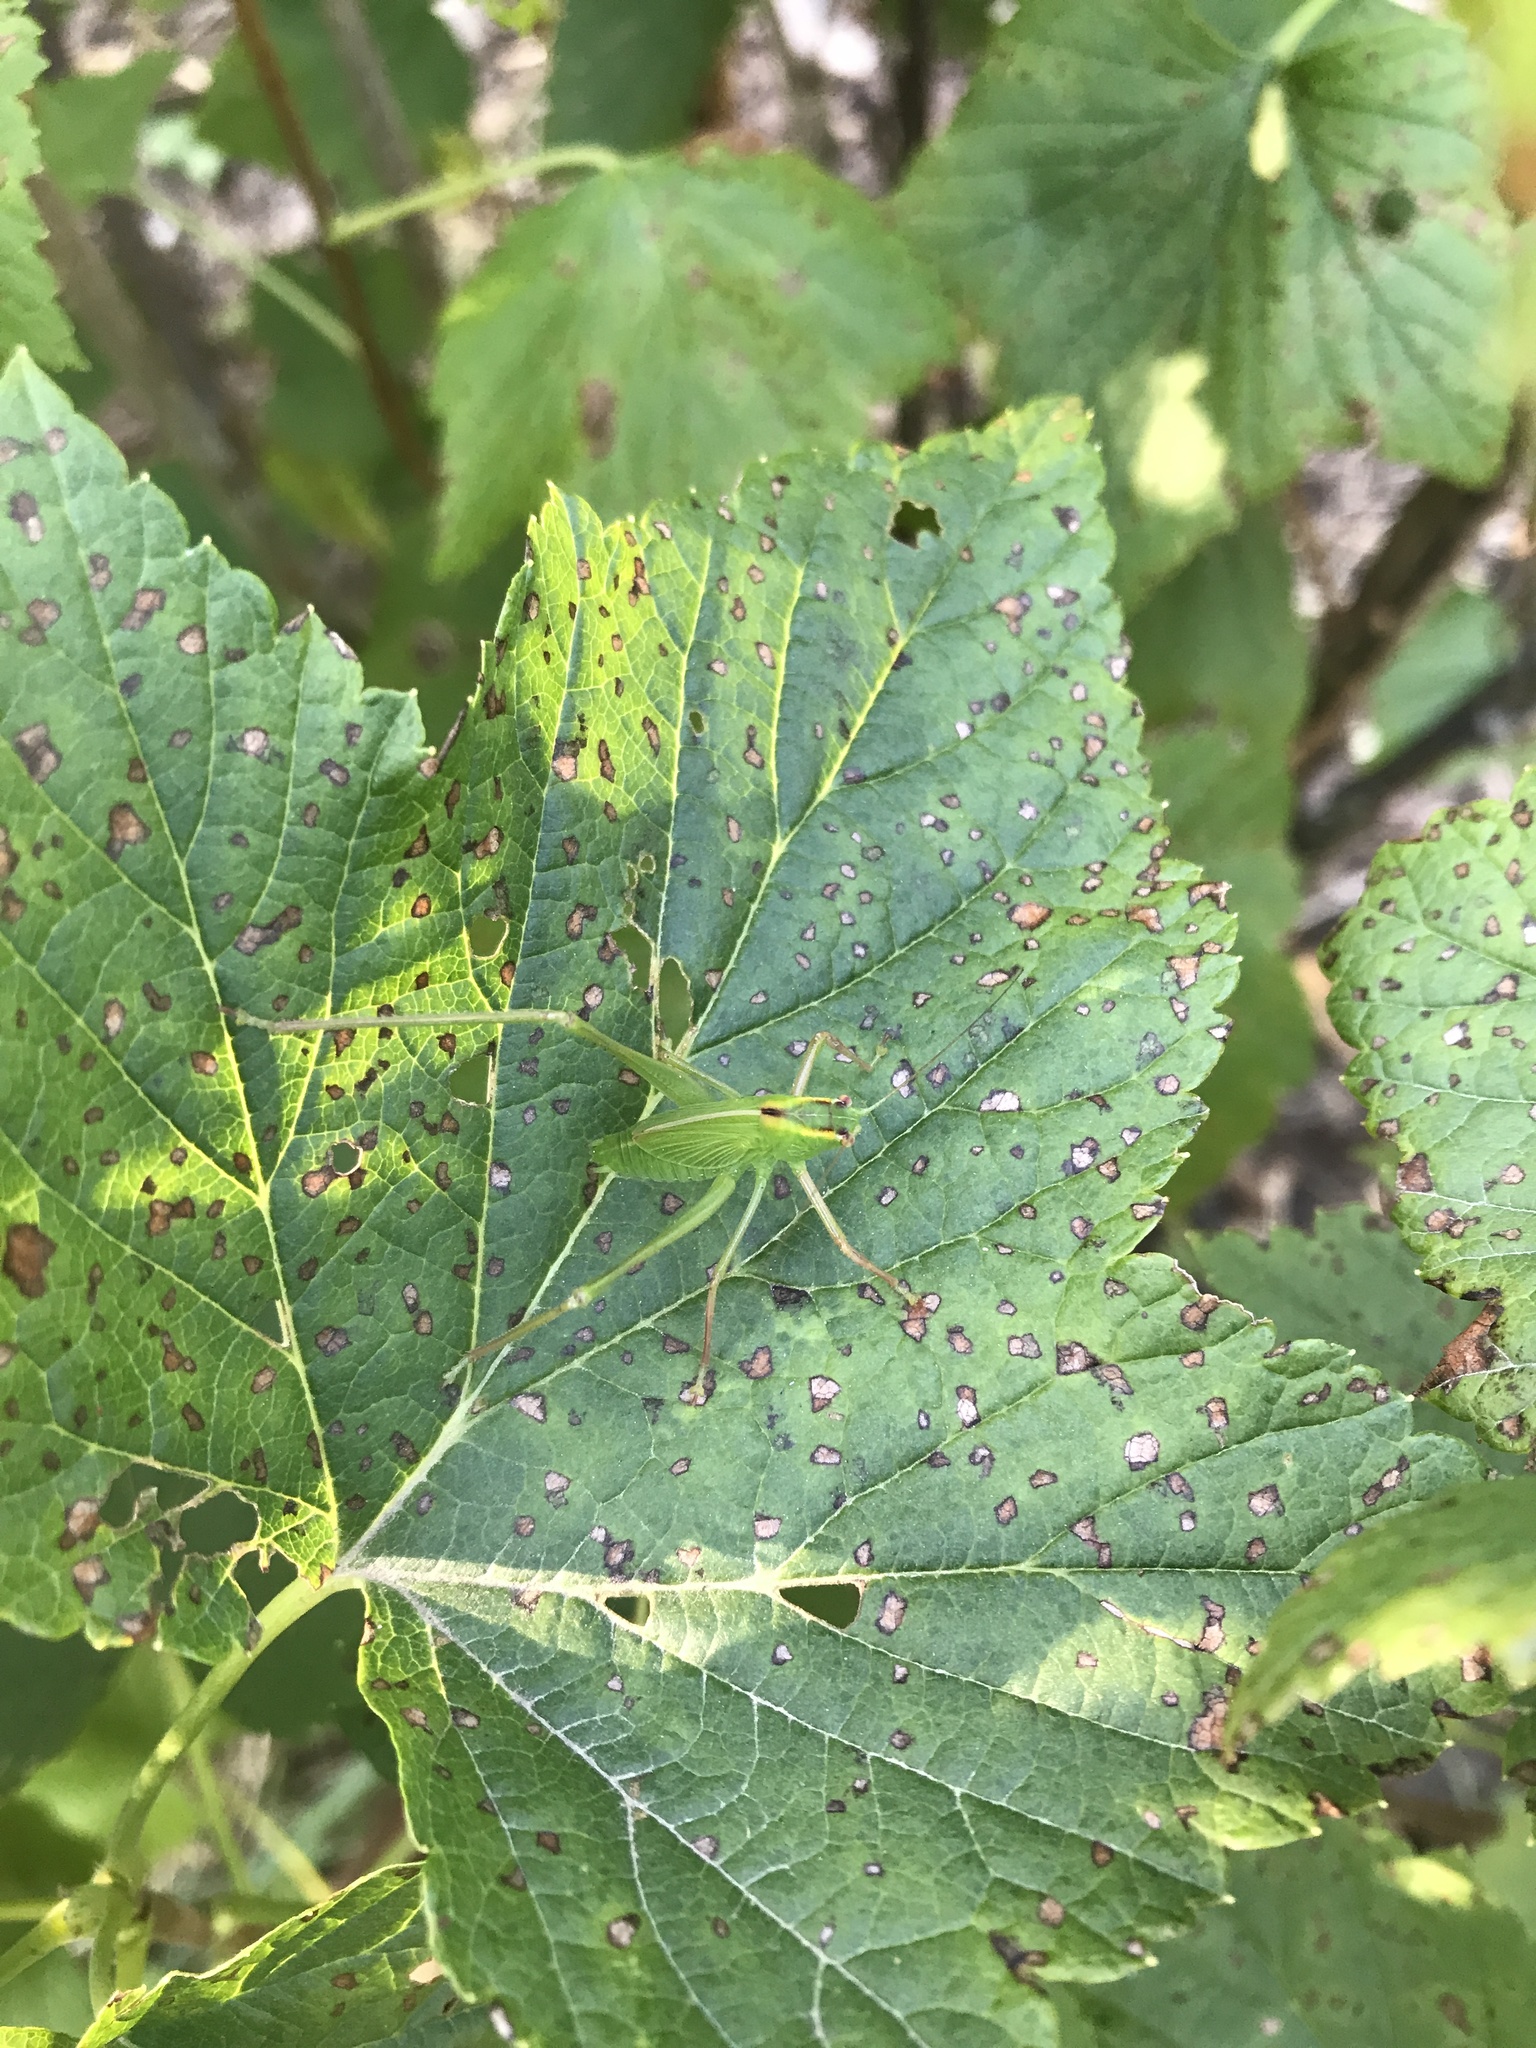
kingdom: Animalia
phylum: Arthropoda
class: Insecta
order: Orthoptera
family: Tettigoniidae
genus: Caedicia
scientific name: Caedicia simplex
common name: Common garden katydid
